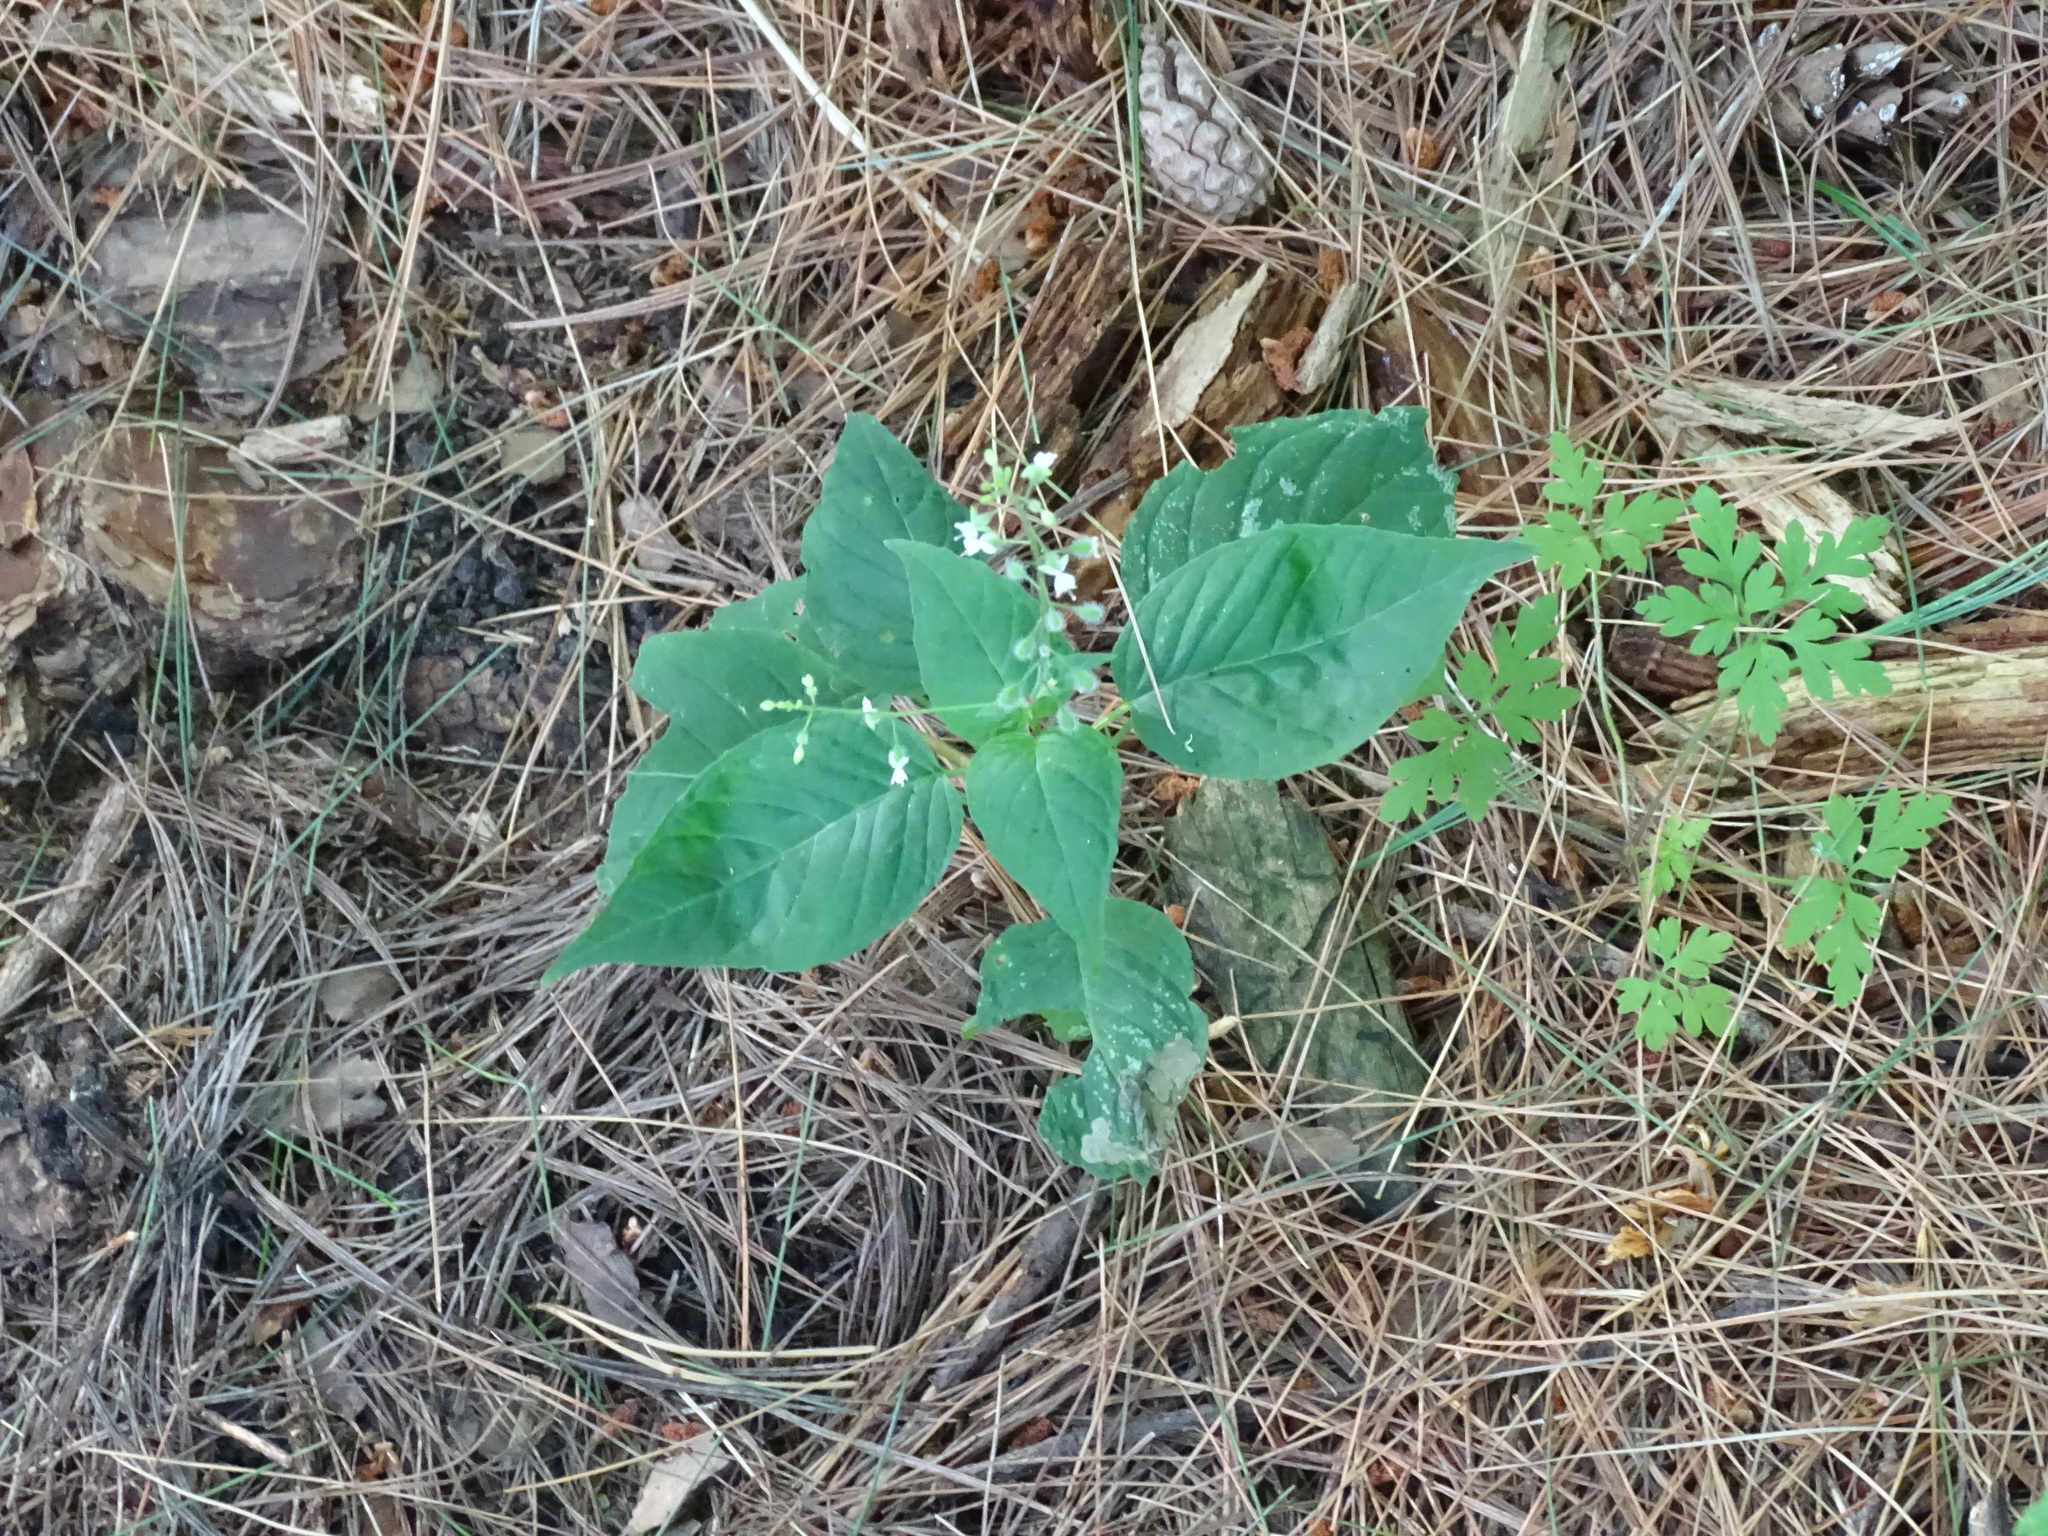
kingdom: Plantae
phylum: Tracheophyta
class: Magnoliopsida
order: Myrtales
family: Onagraceae
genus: Circaea
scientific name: Circaea canadensis
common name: Broad-leaved enchanter's nightshade
